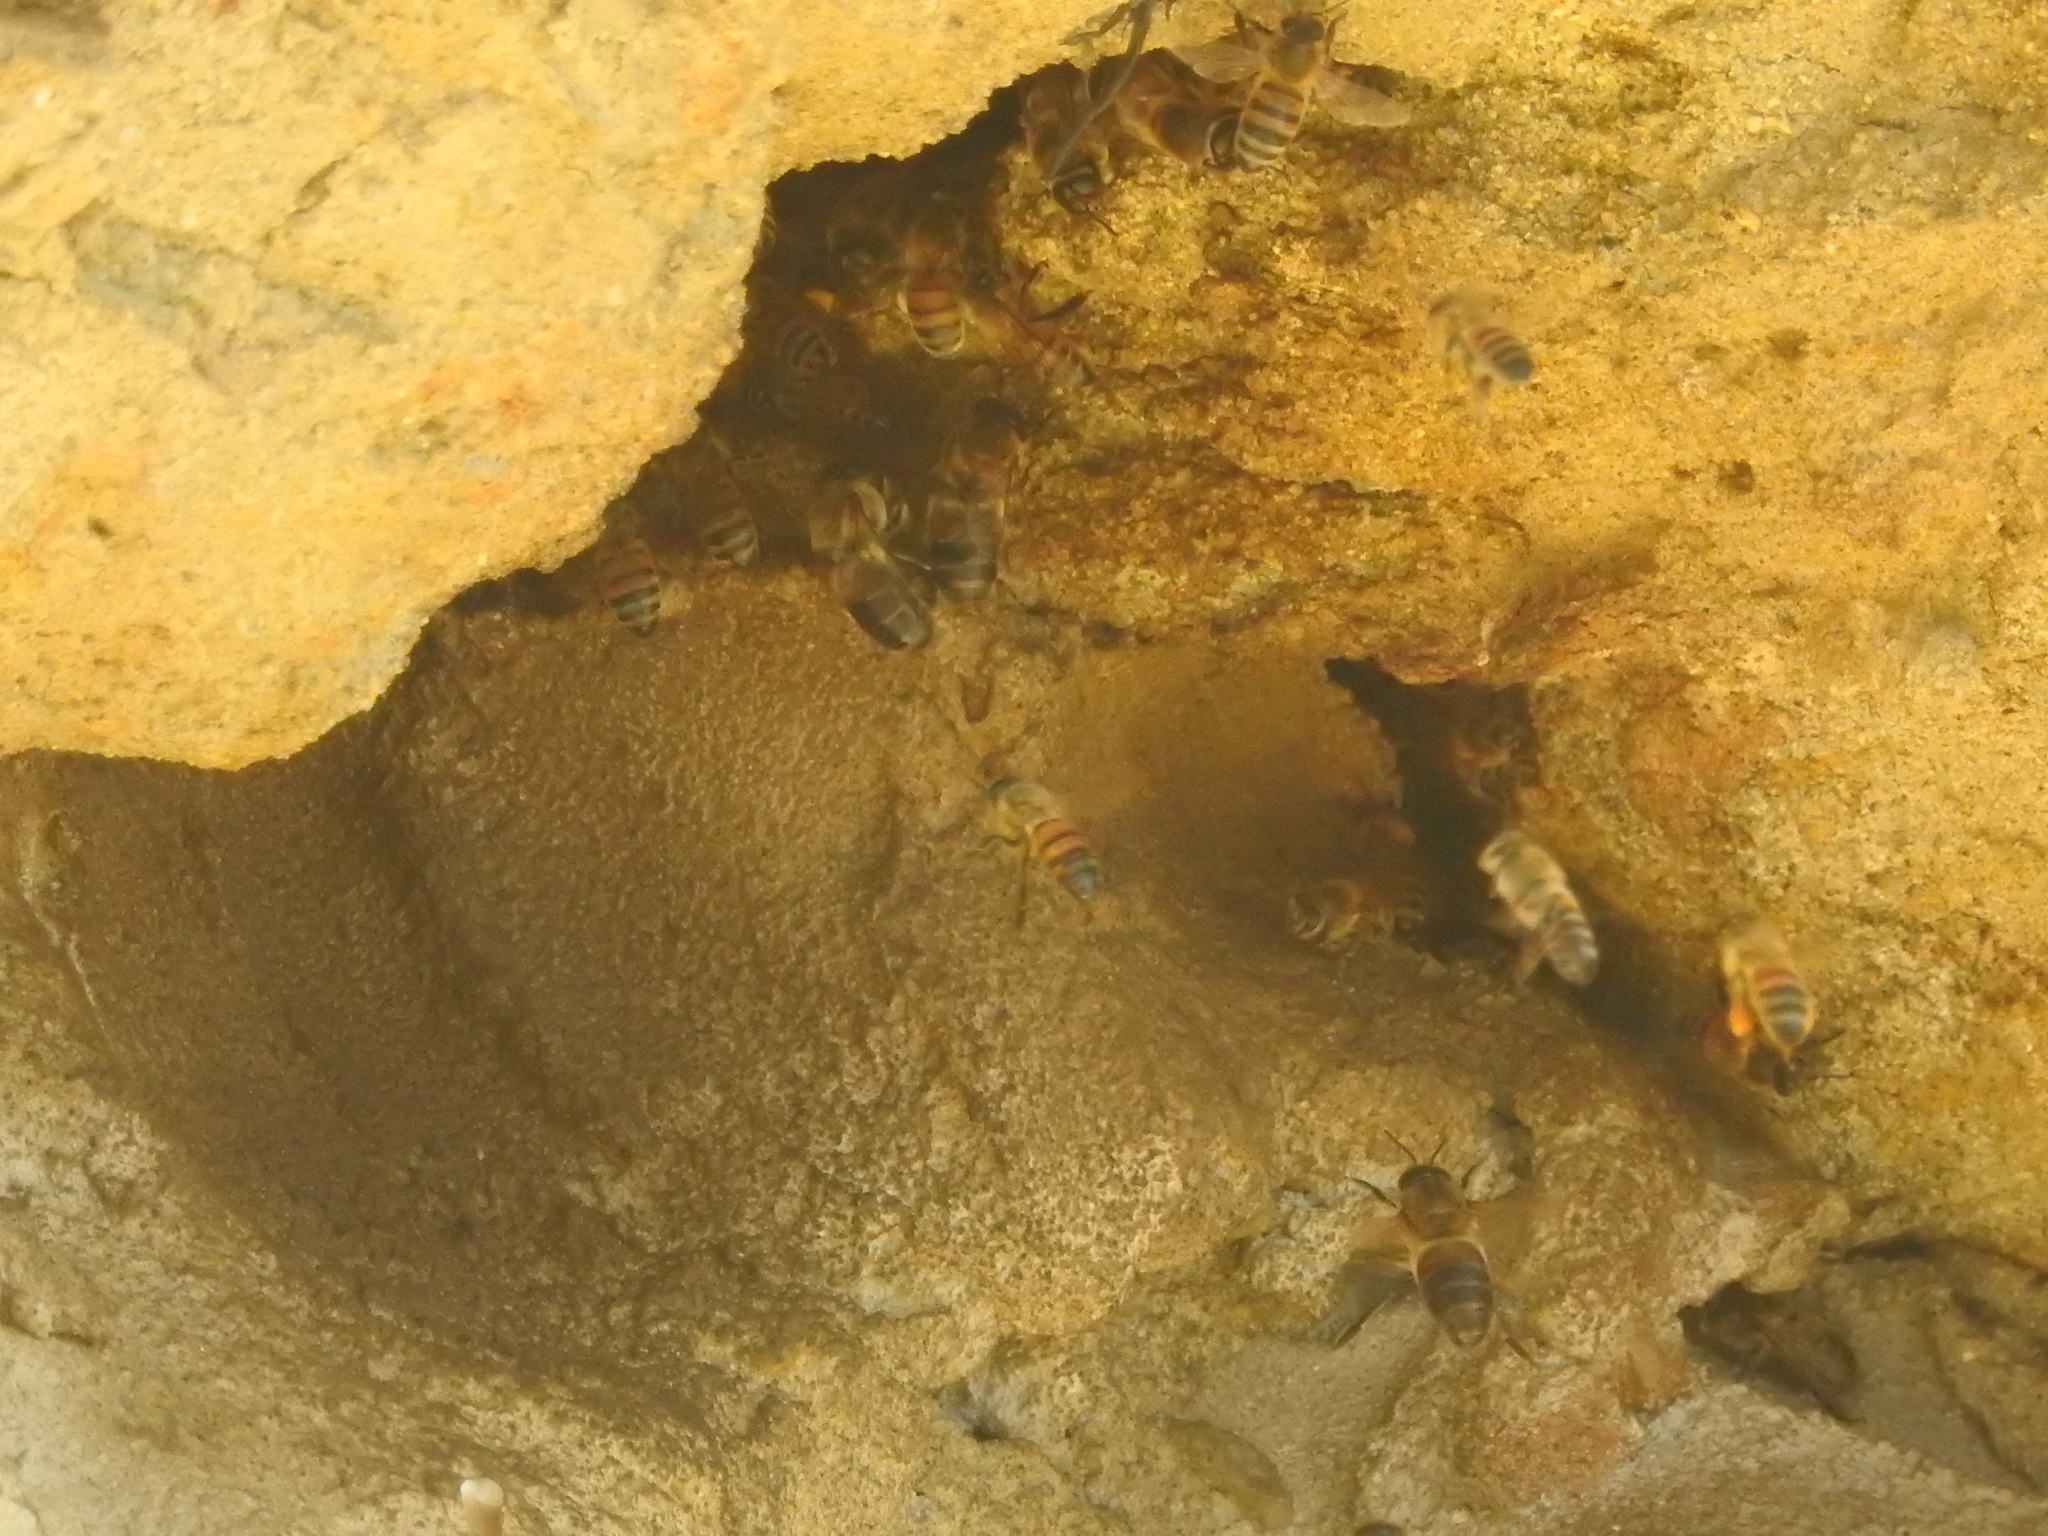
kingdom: Animalia
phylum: Arthropoda
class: Insecta
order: Hymenoptera
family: Apidae
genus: Apis
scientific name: Apis mellifera
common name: Honey bee
